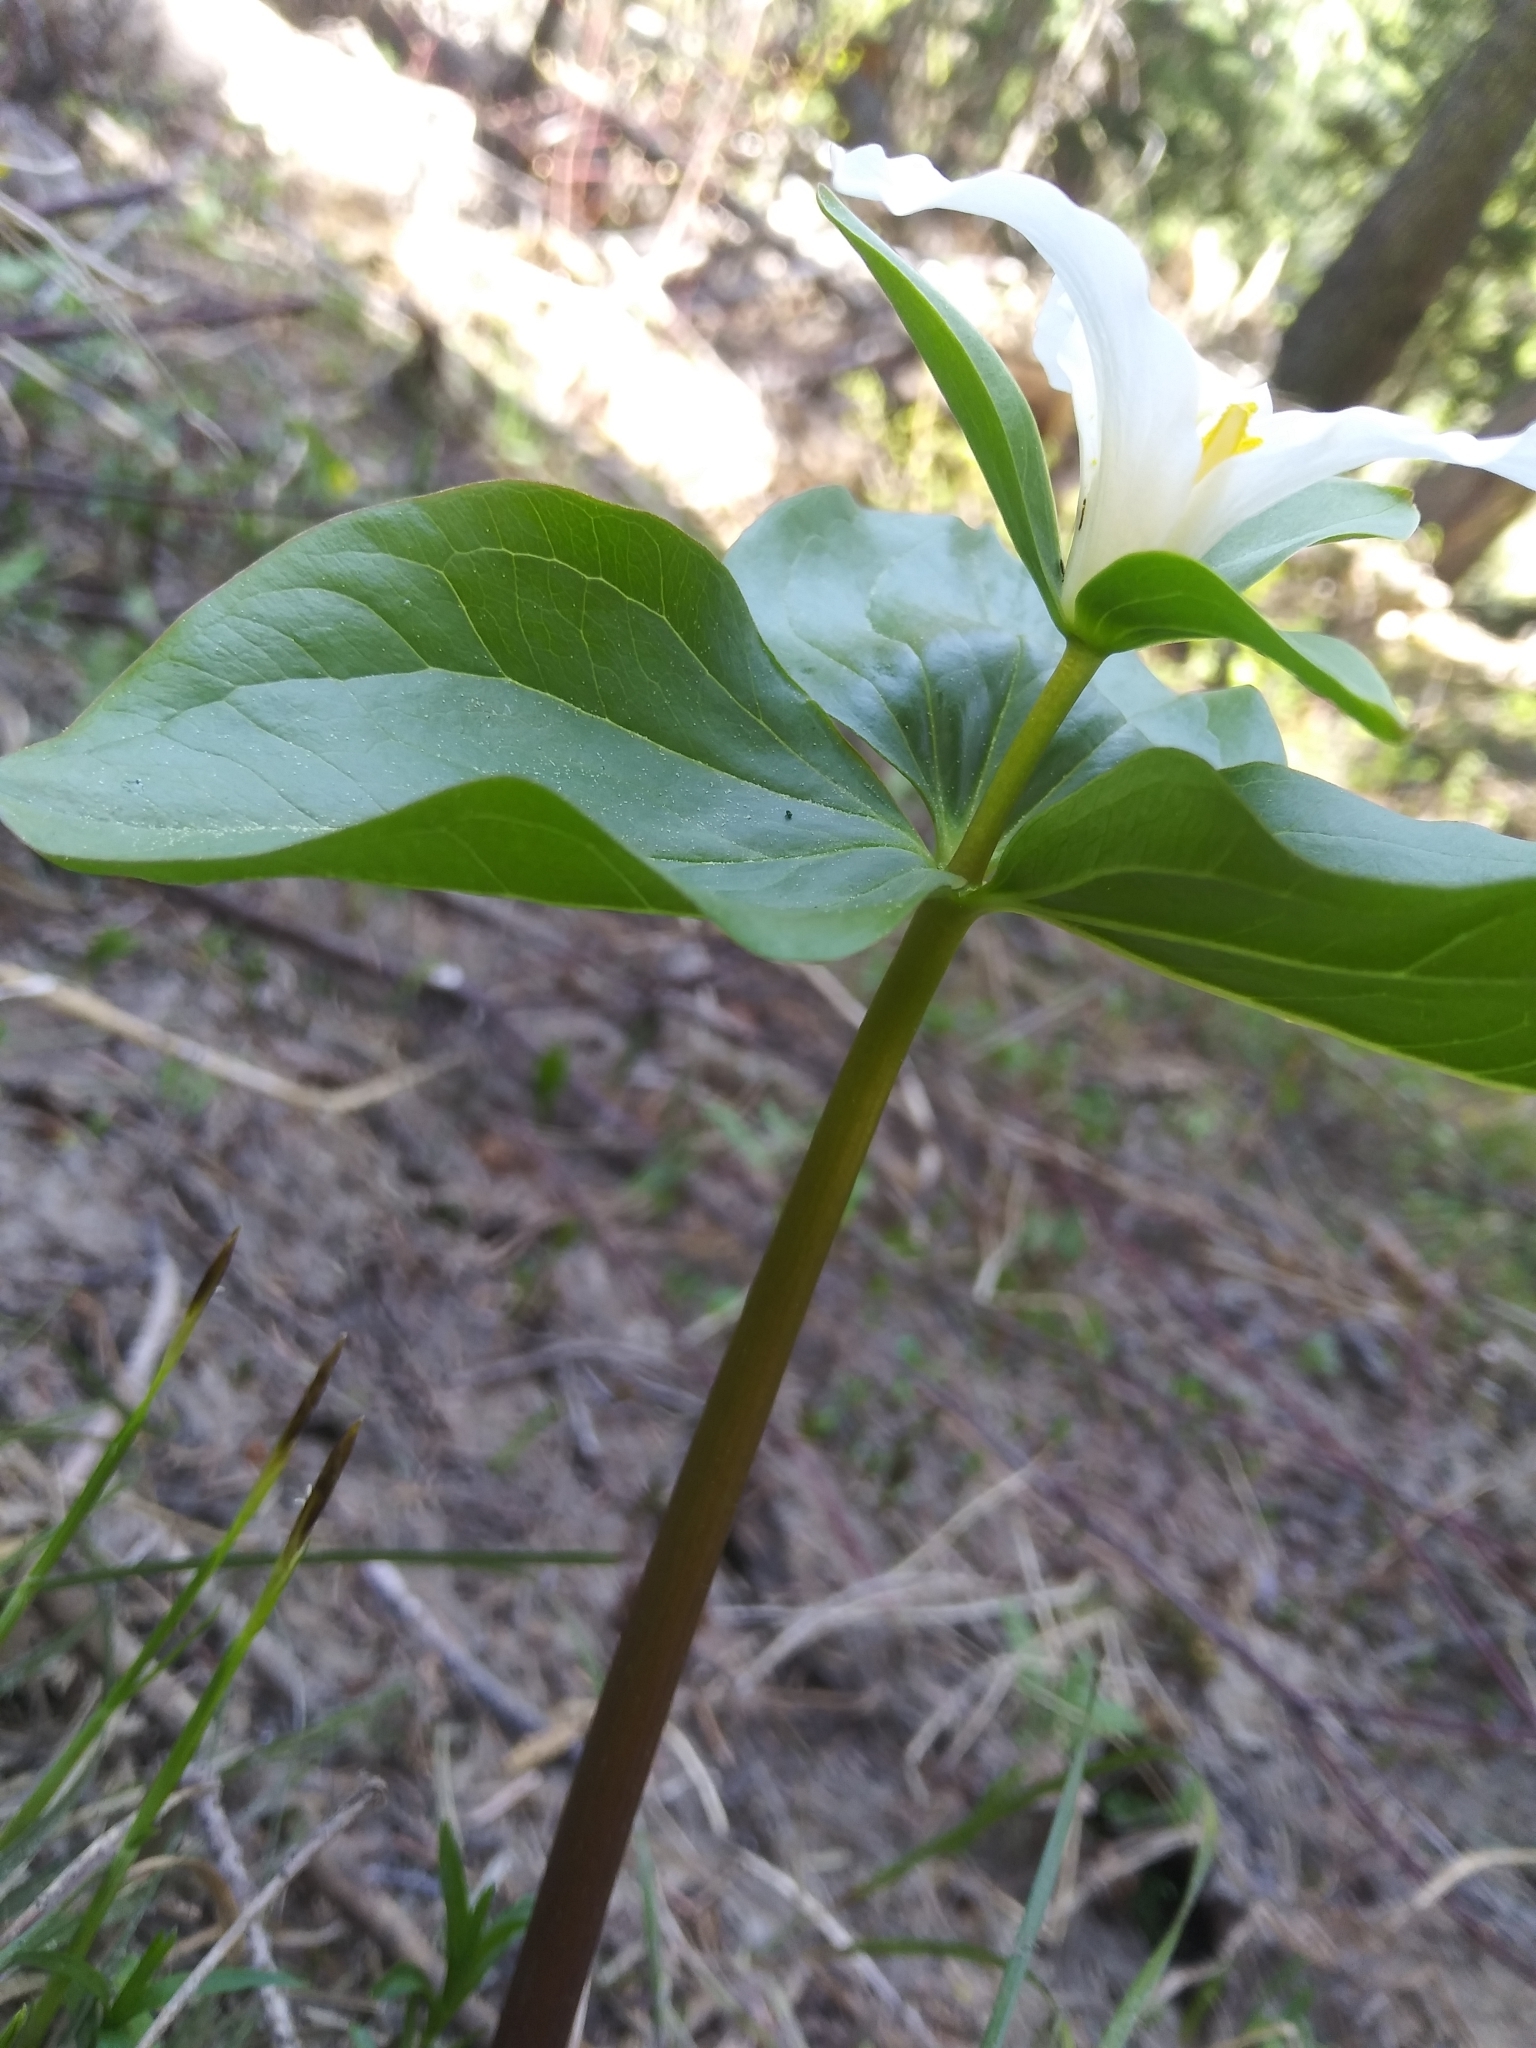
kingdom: Plantae
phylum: Tracheophyta
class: Liliopsida
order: Liliales
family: Melanthiaceae
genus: Trillium
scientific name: Trillium crassifolium
